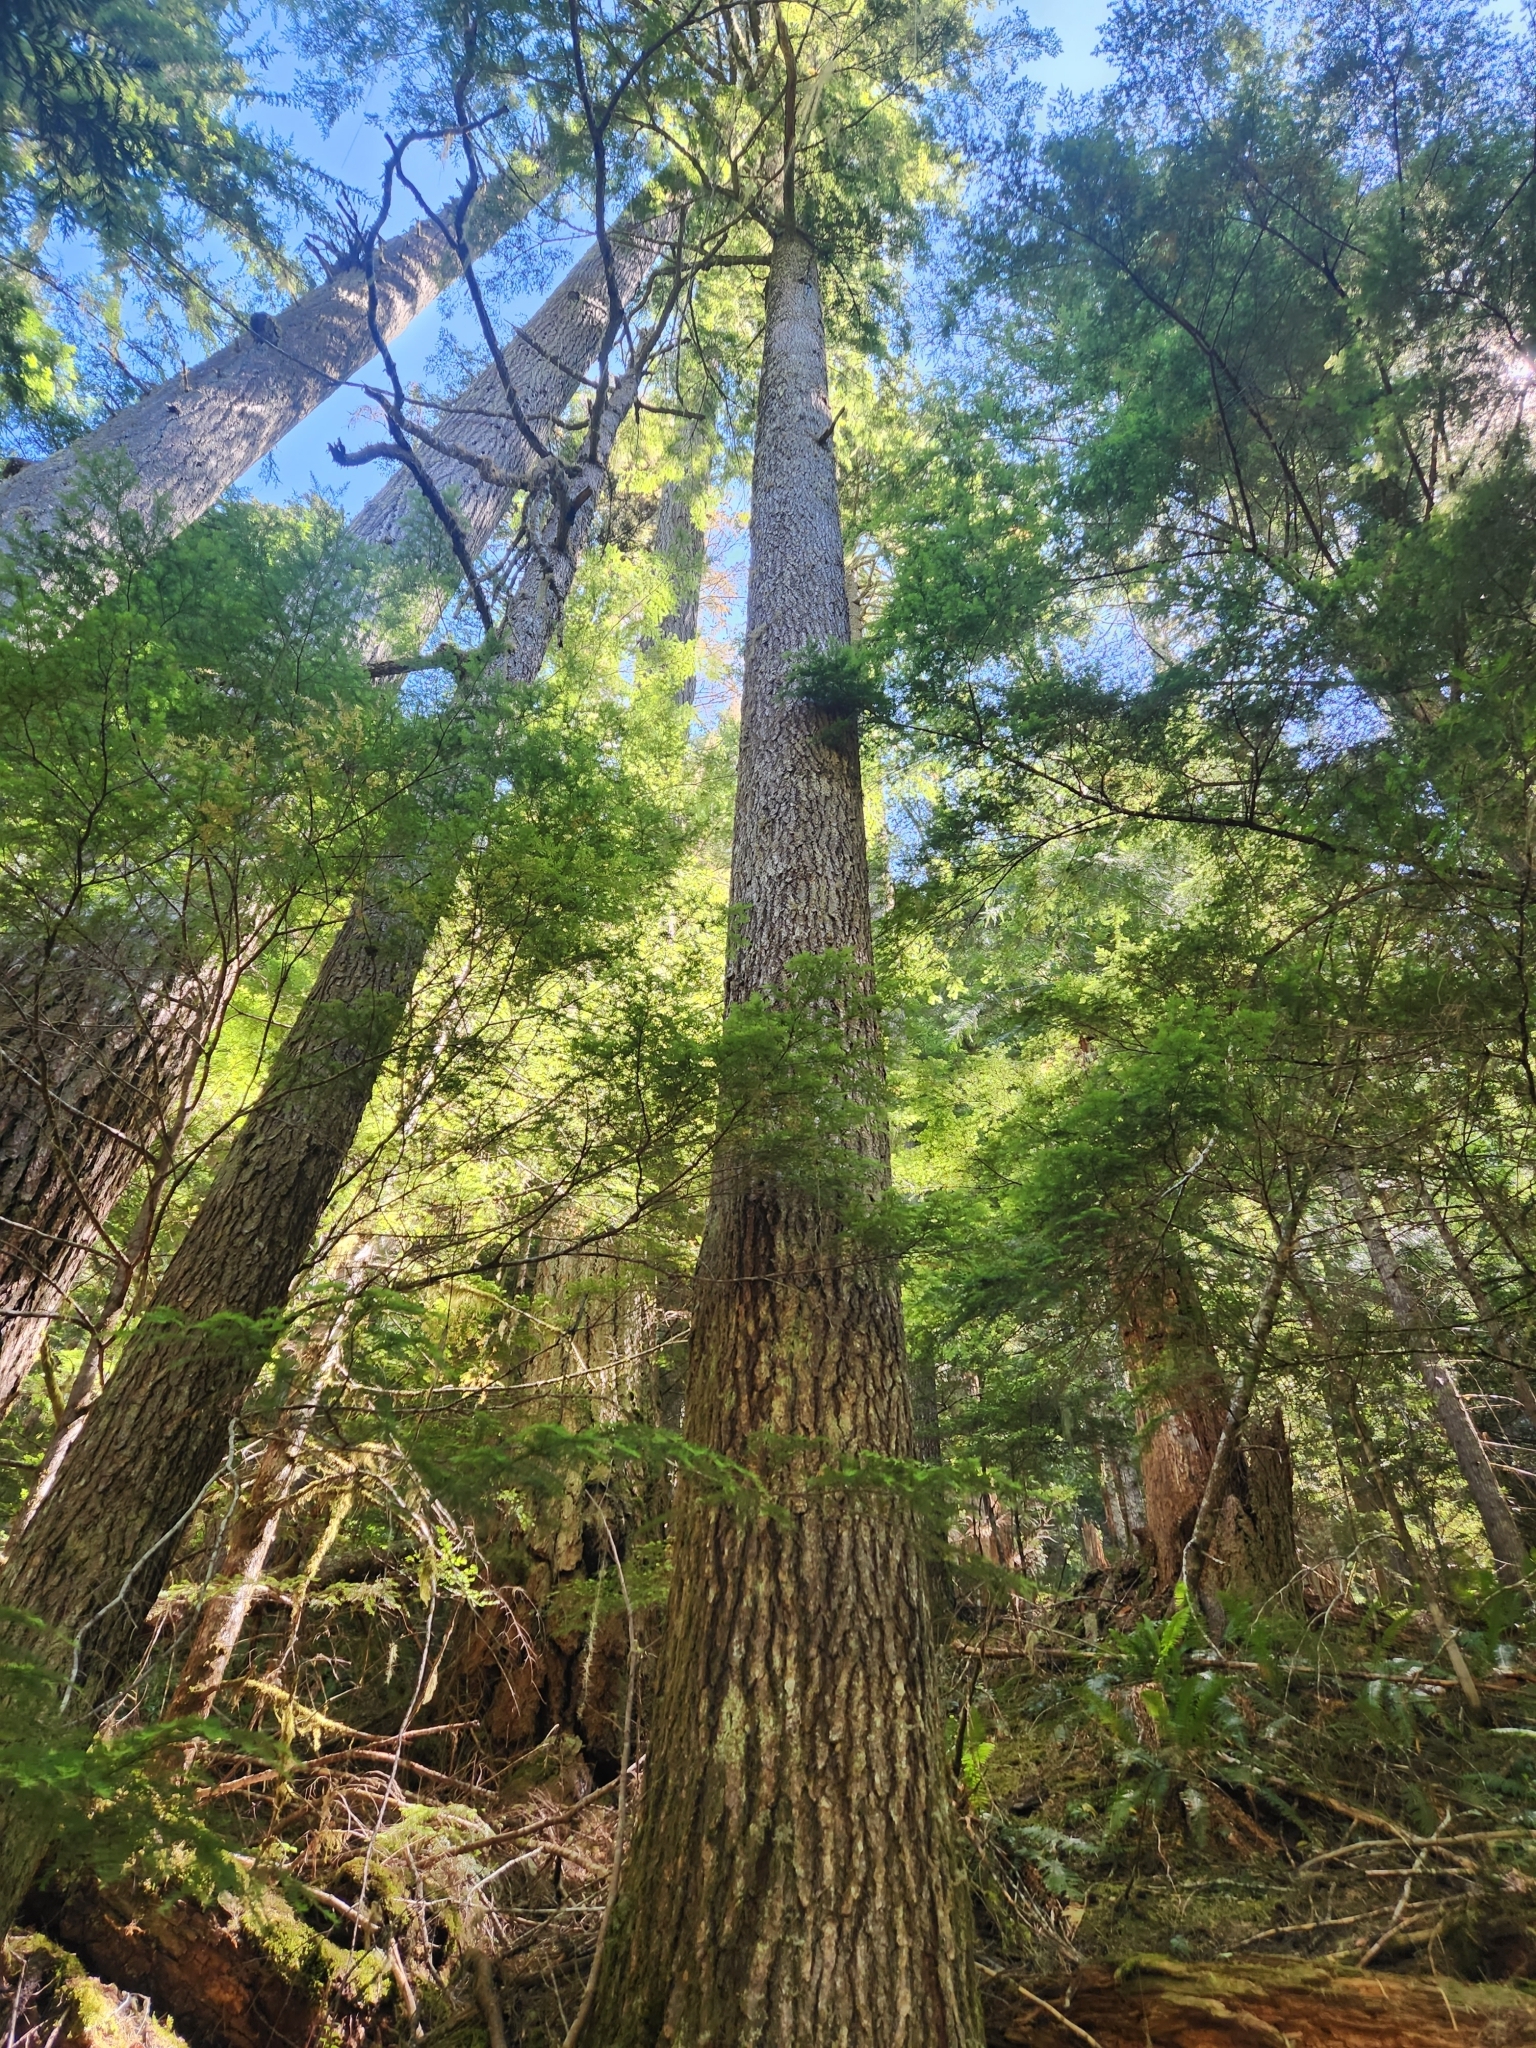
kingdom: Plantae
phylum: Tracheophyta
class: Pinopsida
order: Pinales
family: Pinaceae
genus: Tsuga
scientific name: Tsuga heterophylla
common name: Western hemlock
